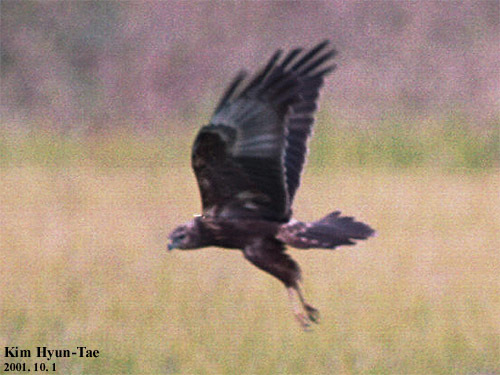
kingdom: Animalia
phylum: Chordata
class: Aves
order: Accipitriformes
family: Accipitridae
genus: Circus
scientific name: Circus spilonotus
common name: Eastern marsh-harrier
